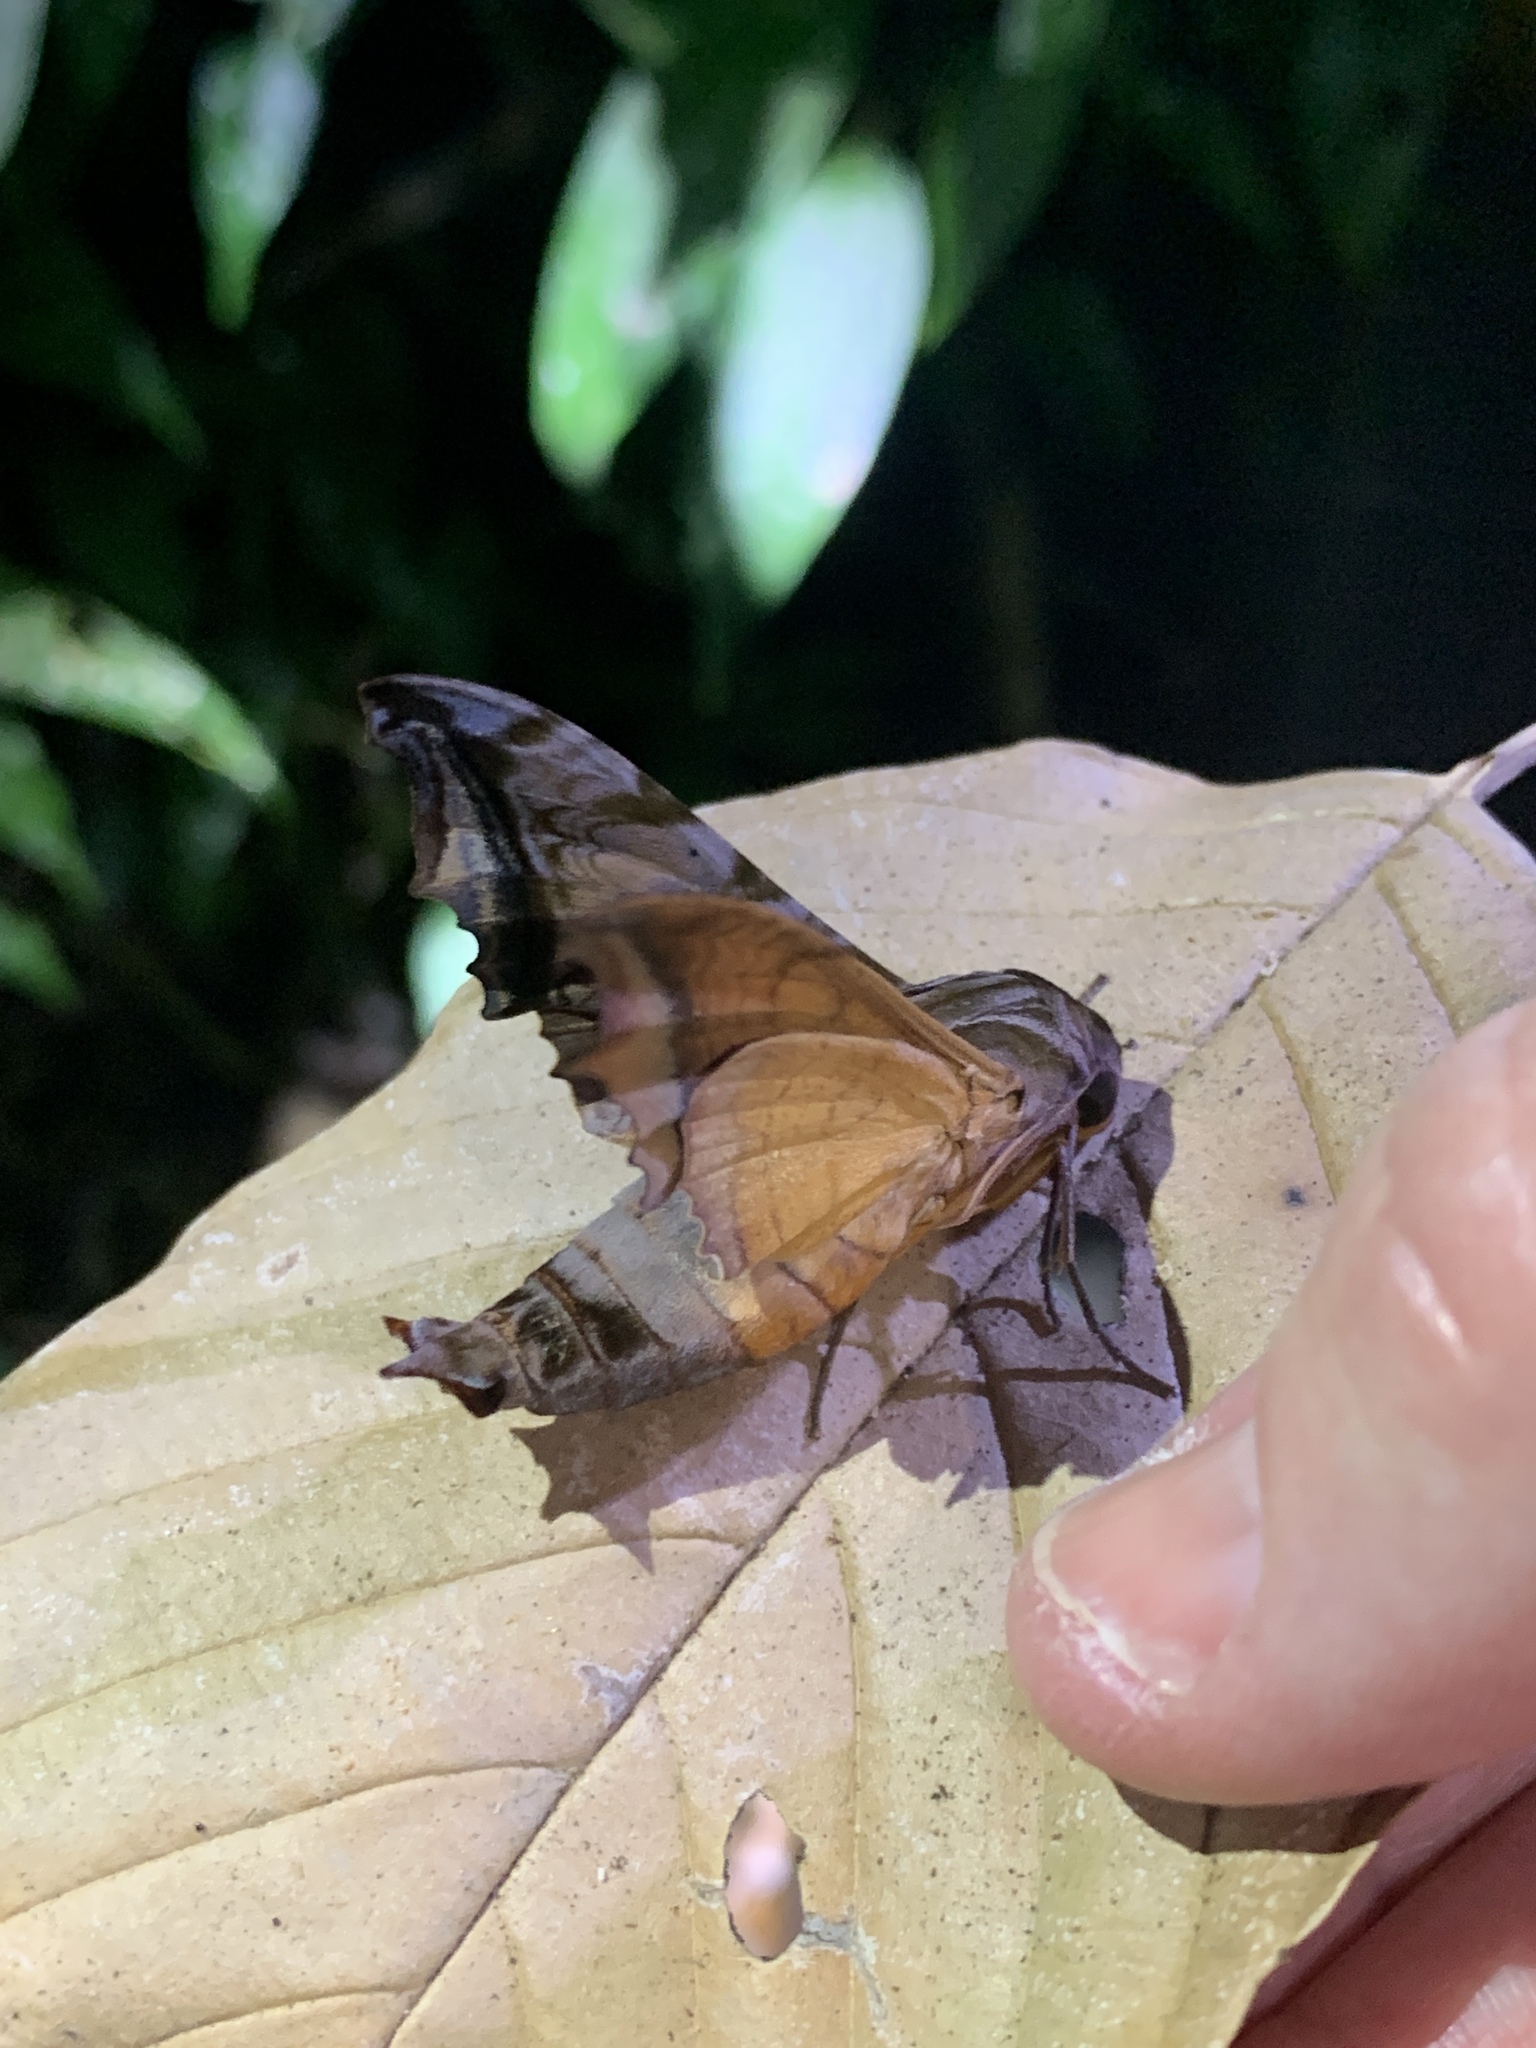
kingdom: Animalia
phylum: Arthropoda
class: Insecta
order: Lepidoptera
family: Sphingidae
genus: Nyceryx
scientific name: Nyceryx stuarti
